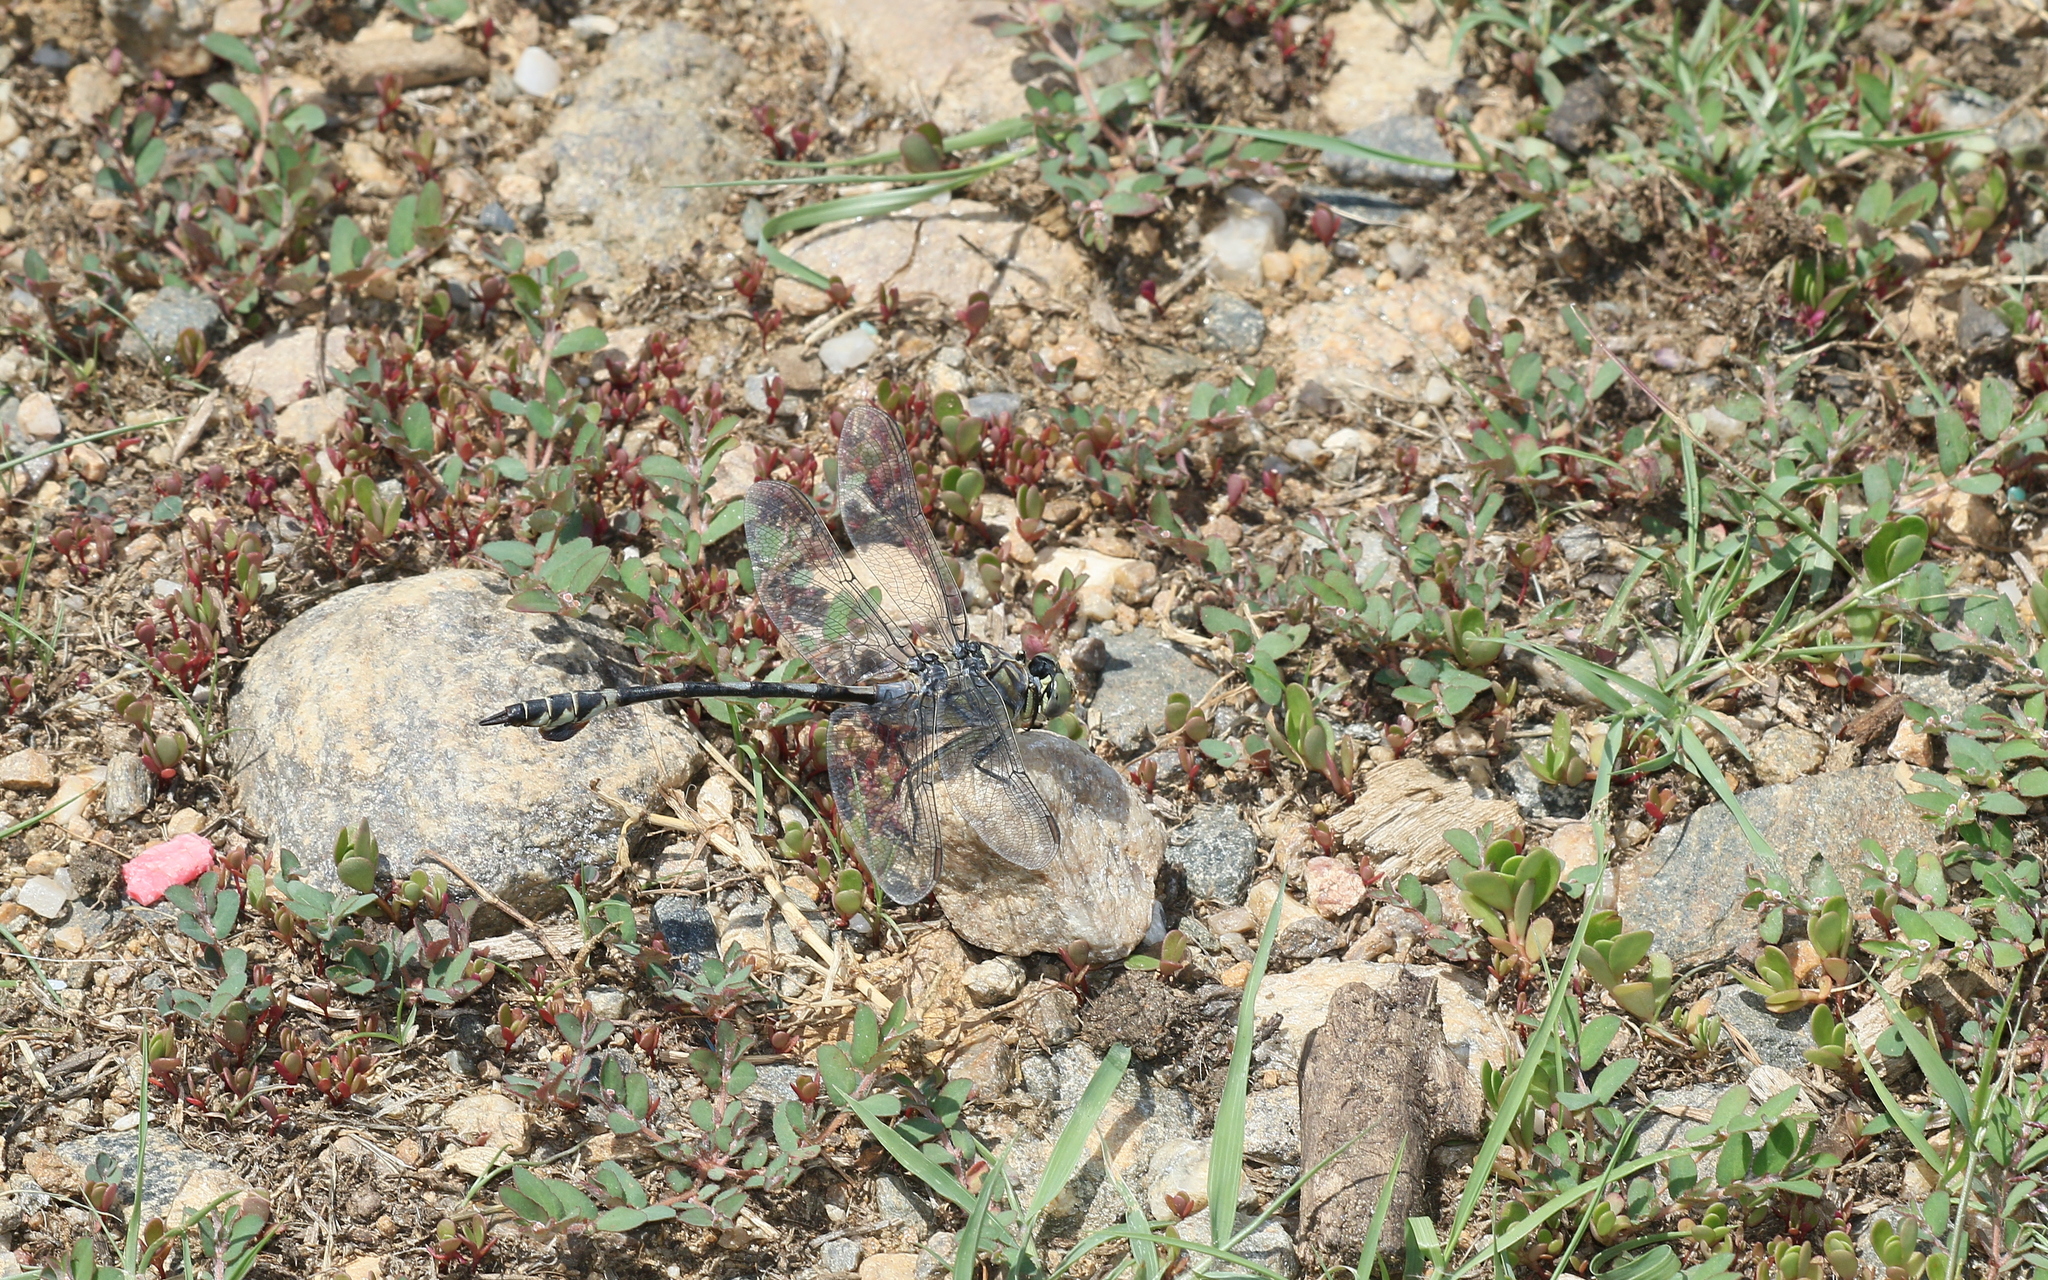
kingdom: Animalia
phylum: Arthropoda
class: Insecta
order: Odonata
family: Gomphidae
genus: Lindenia
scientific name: Lindenia tetraphylla
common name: Bladetail
